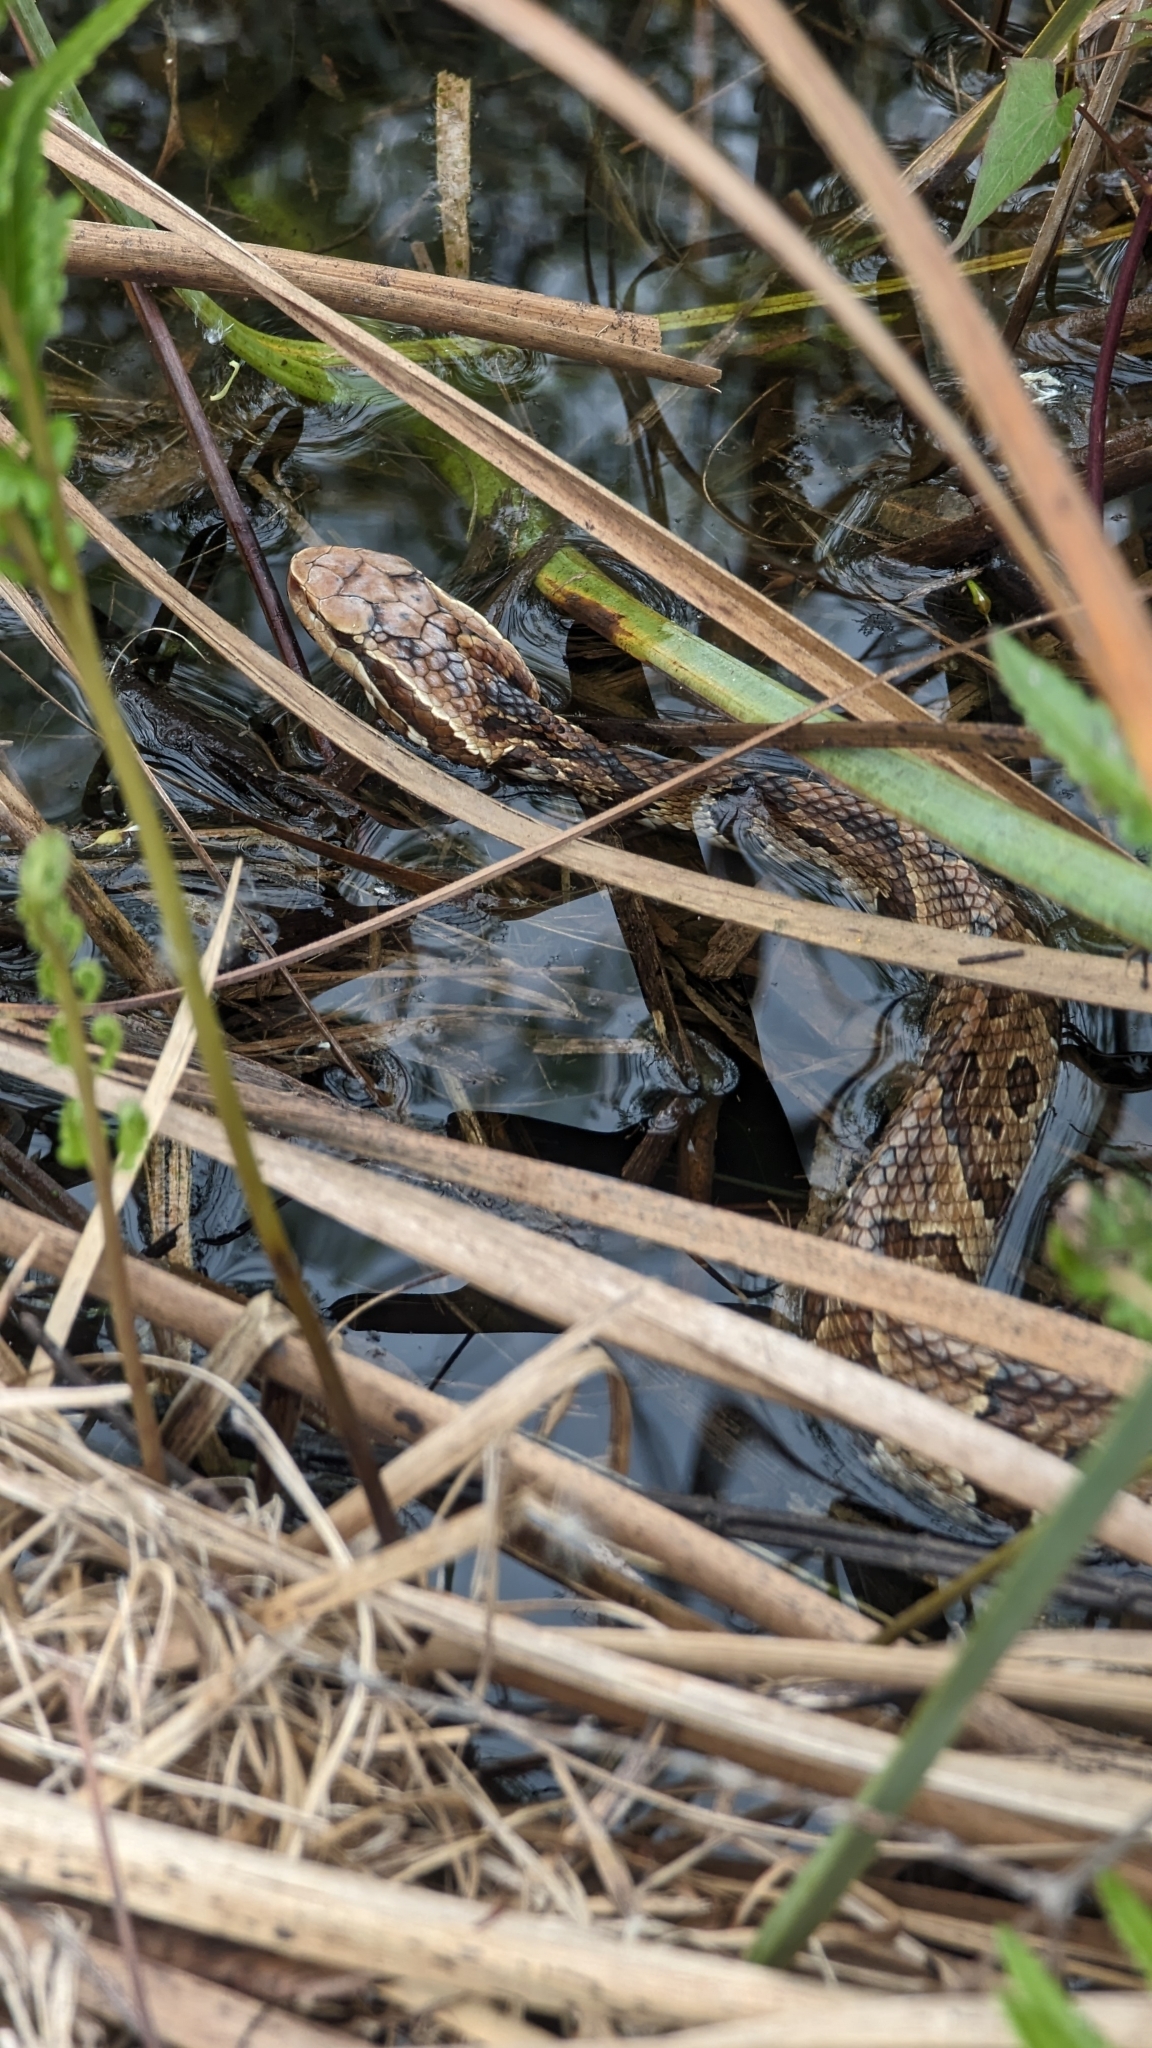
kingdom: Animalia
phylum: Chordata
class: Squamata
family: Viperidae
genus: Agkistrodon
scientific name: Agkistrodon conanti
